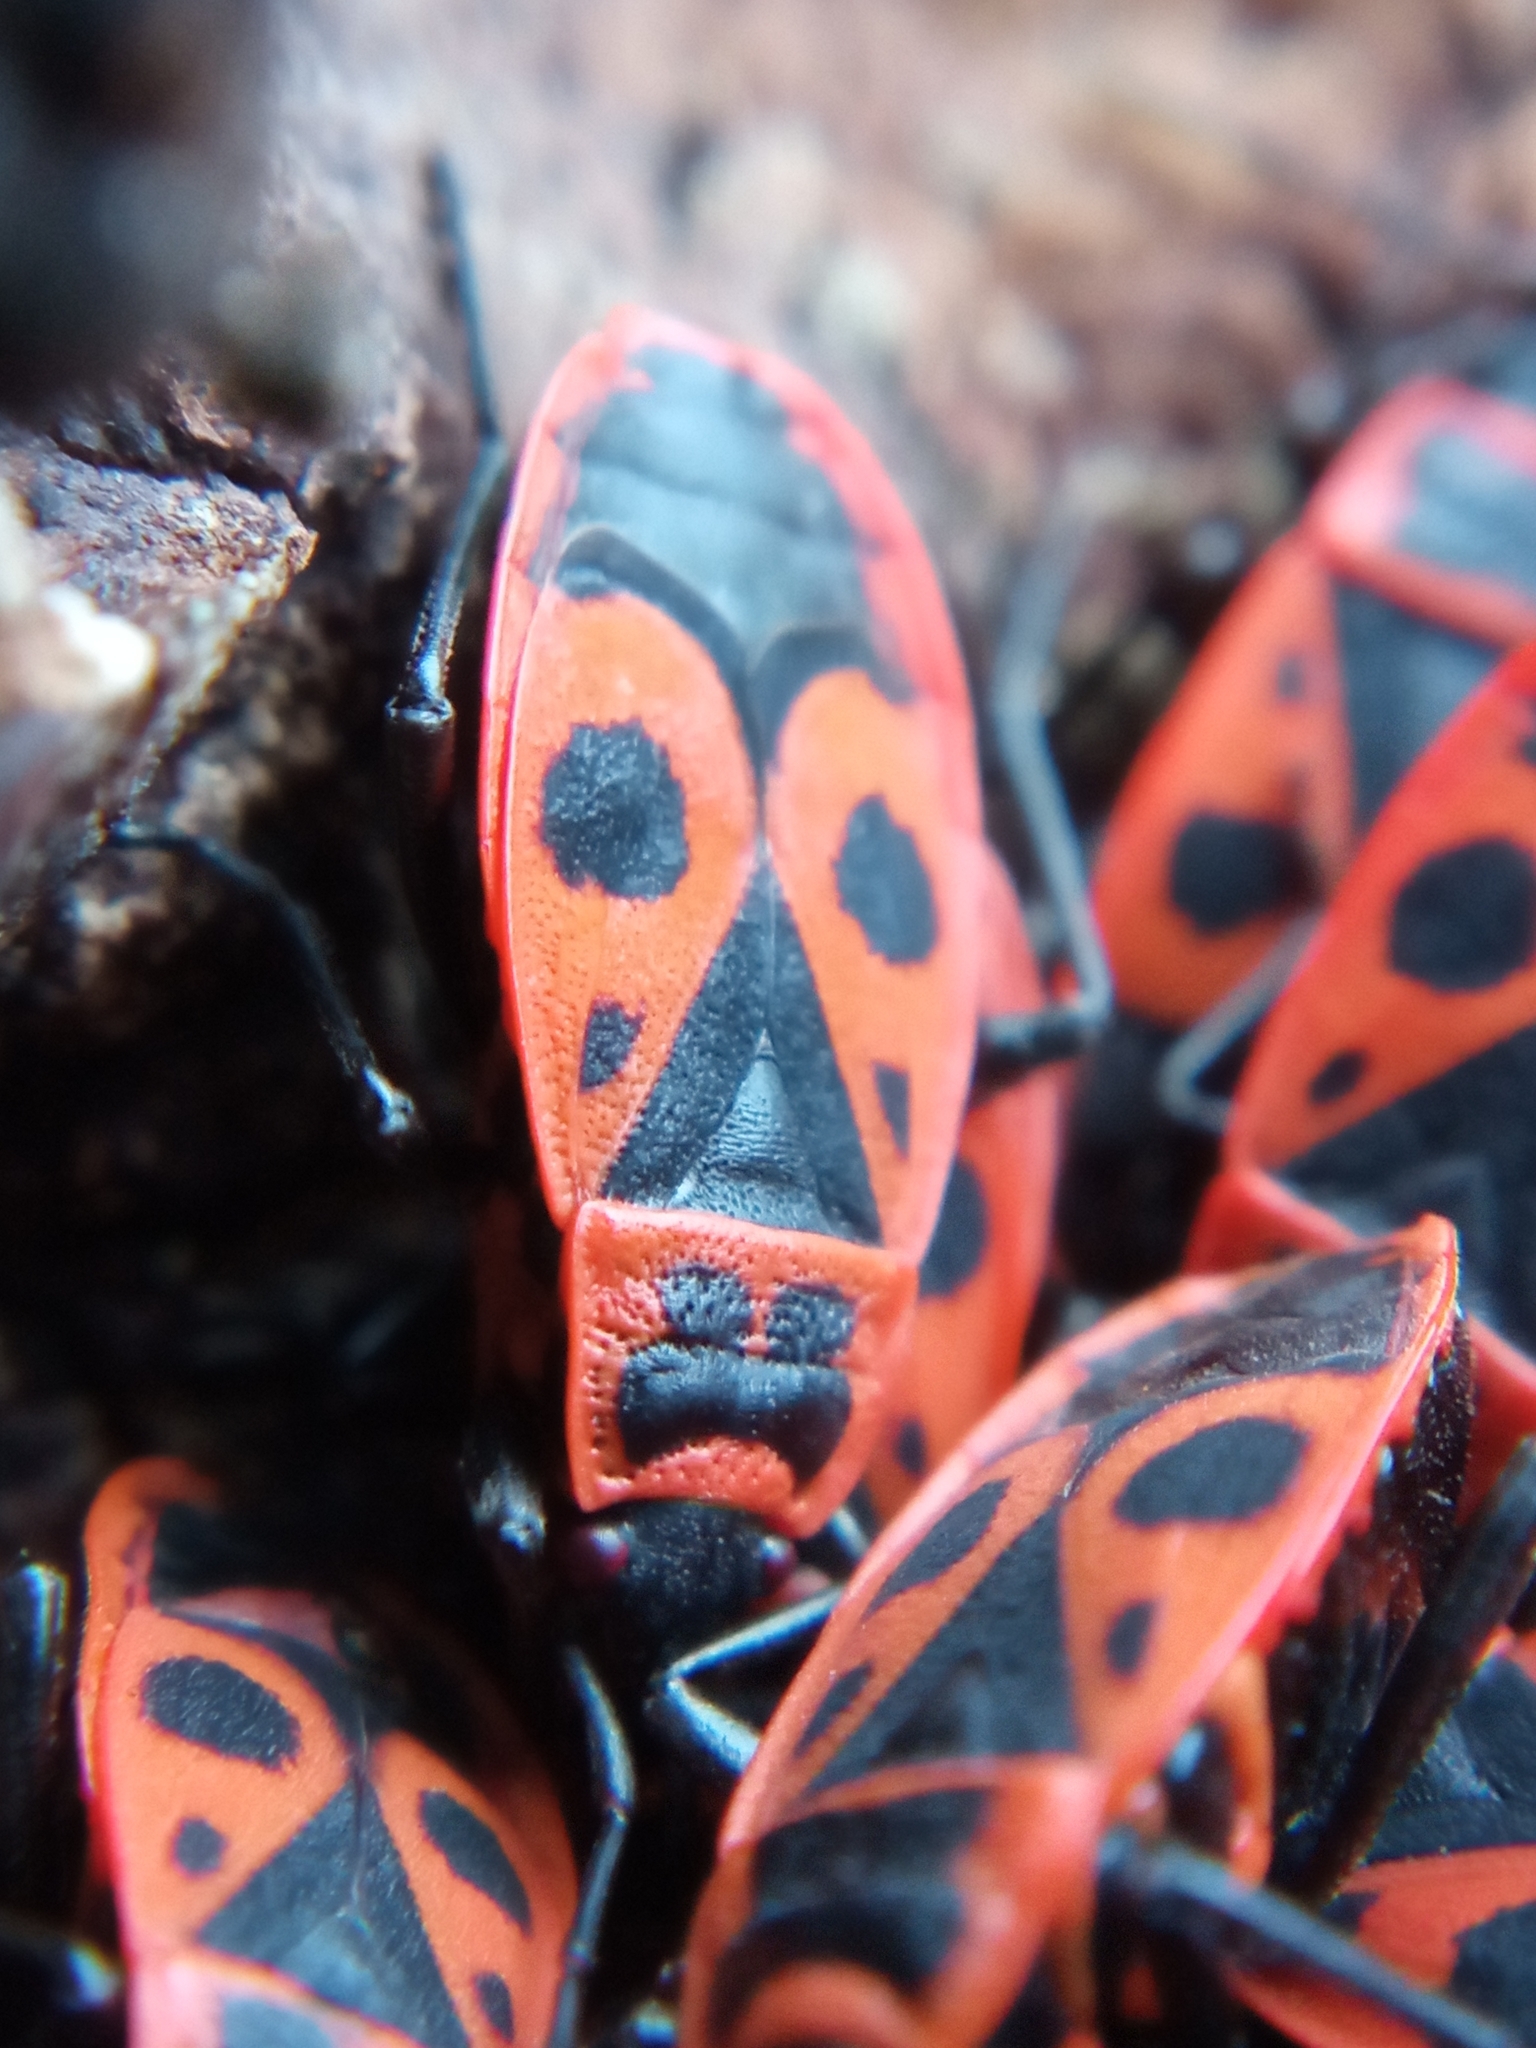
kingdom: Animalia
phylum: Arthropoda
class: Insecta
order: Hemiptera
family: Pyrrhocoridae
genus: Pyrrhocoris
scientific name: Pyrrhocoris apterus
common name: Firebug
